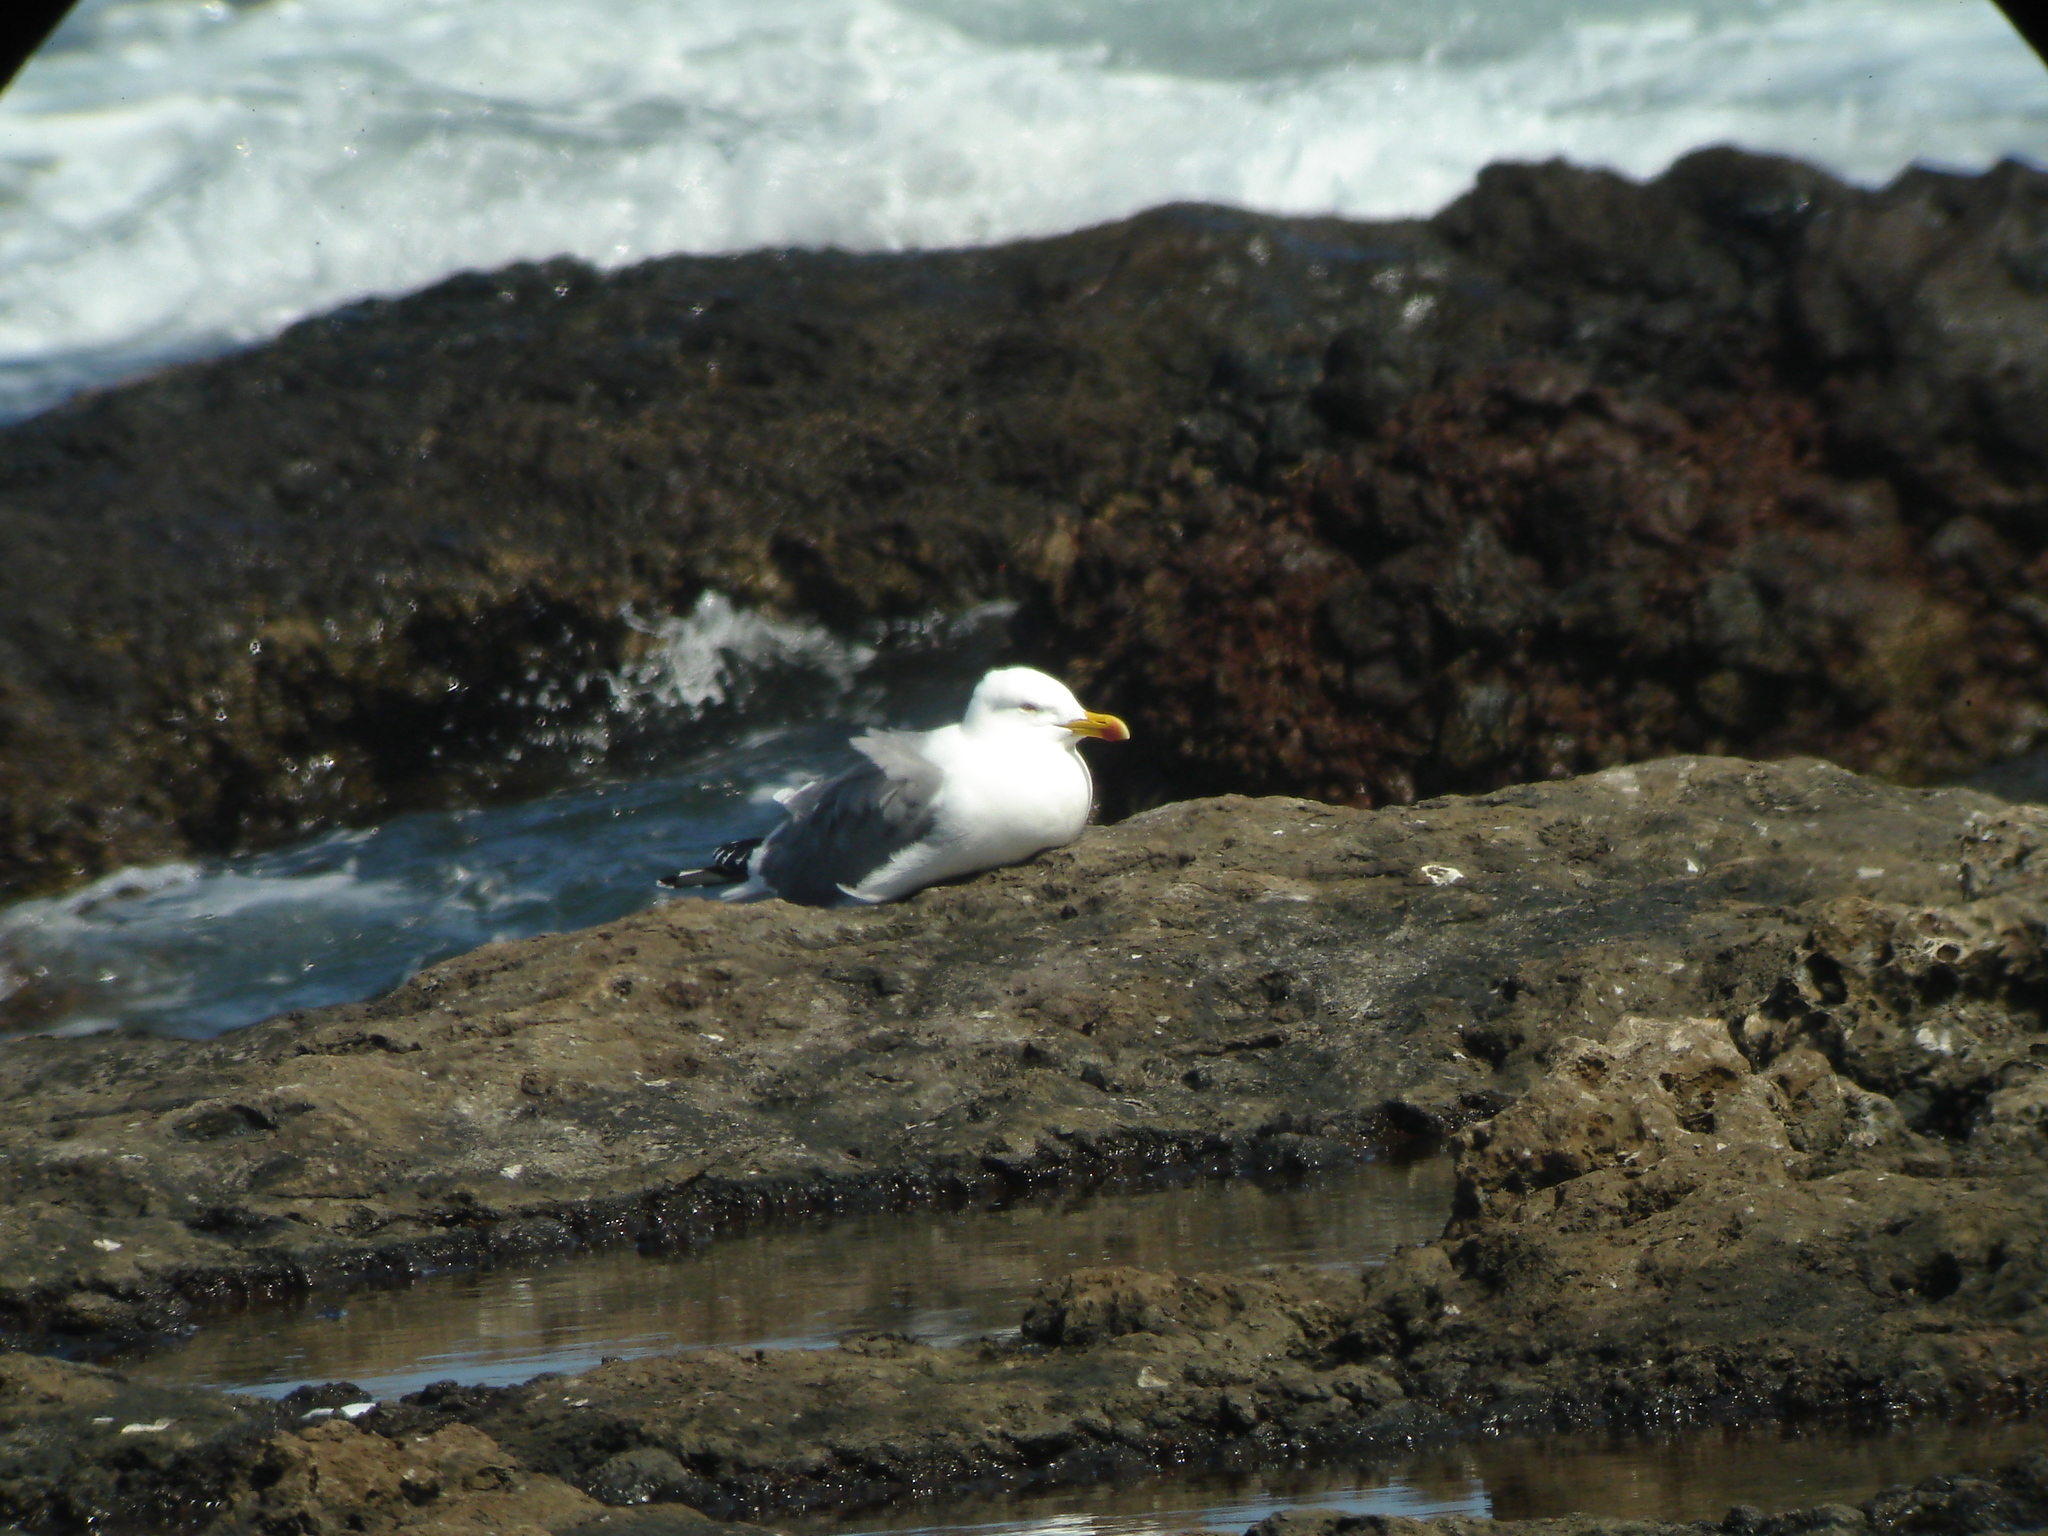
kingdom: Animalia
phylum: Chordata
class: Aves
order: Charadriiformes
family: Laridae
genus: Larus
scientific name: Larus michahellis
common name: Yellow-legged gull
